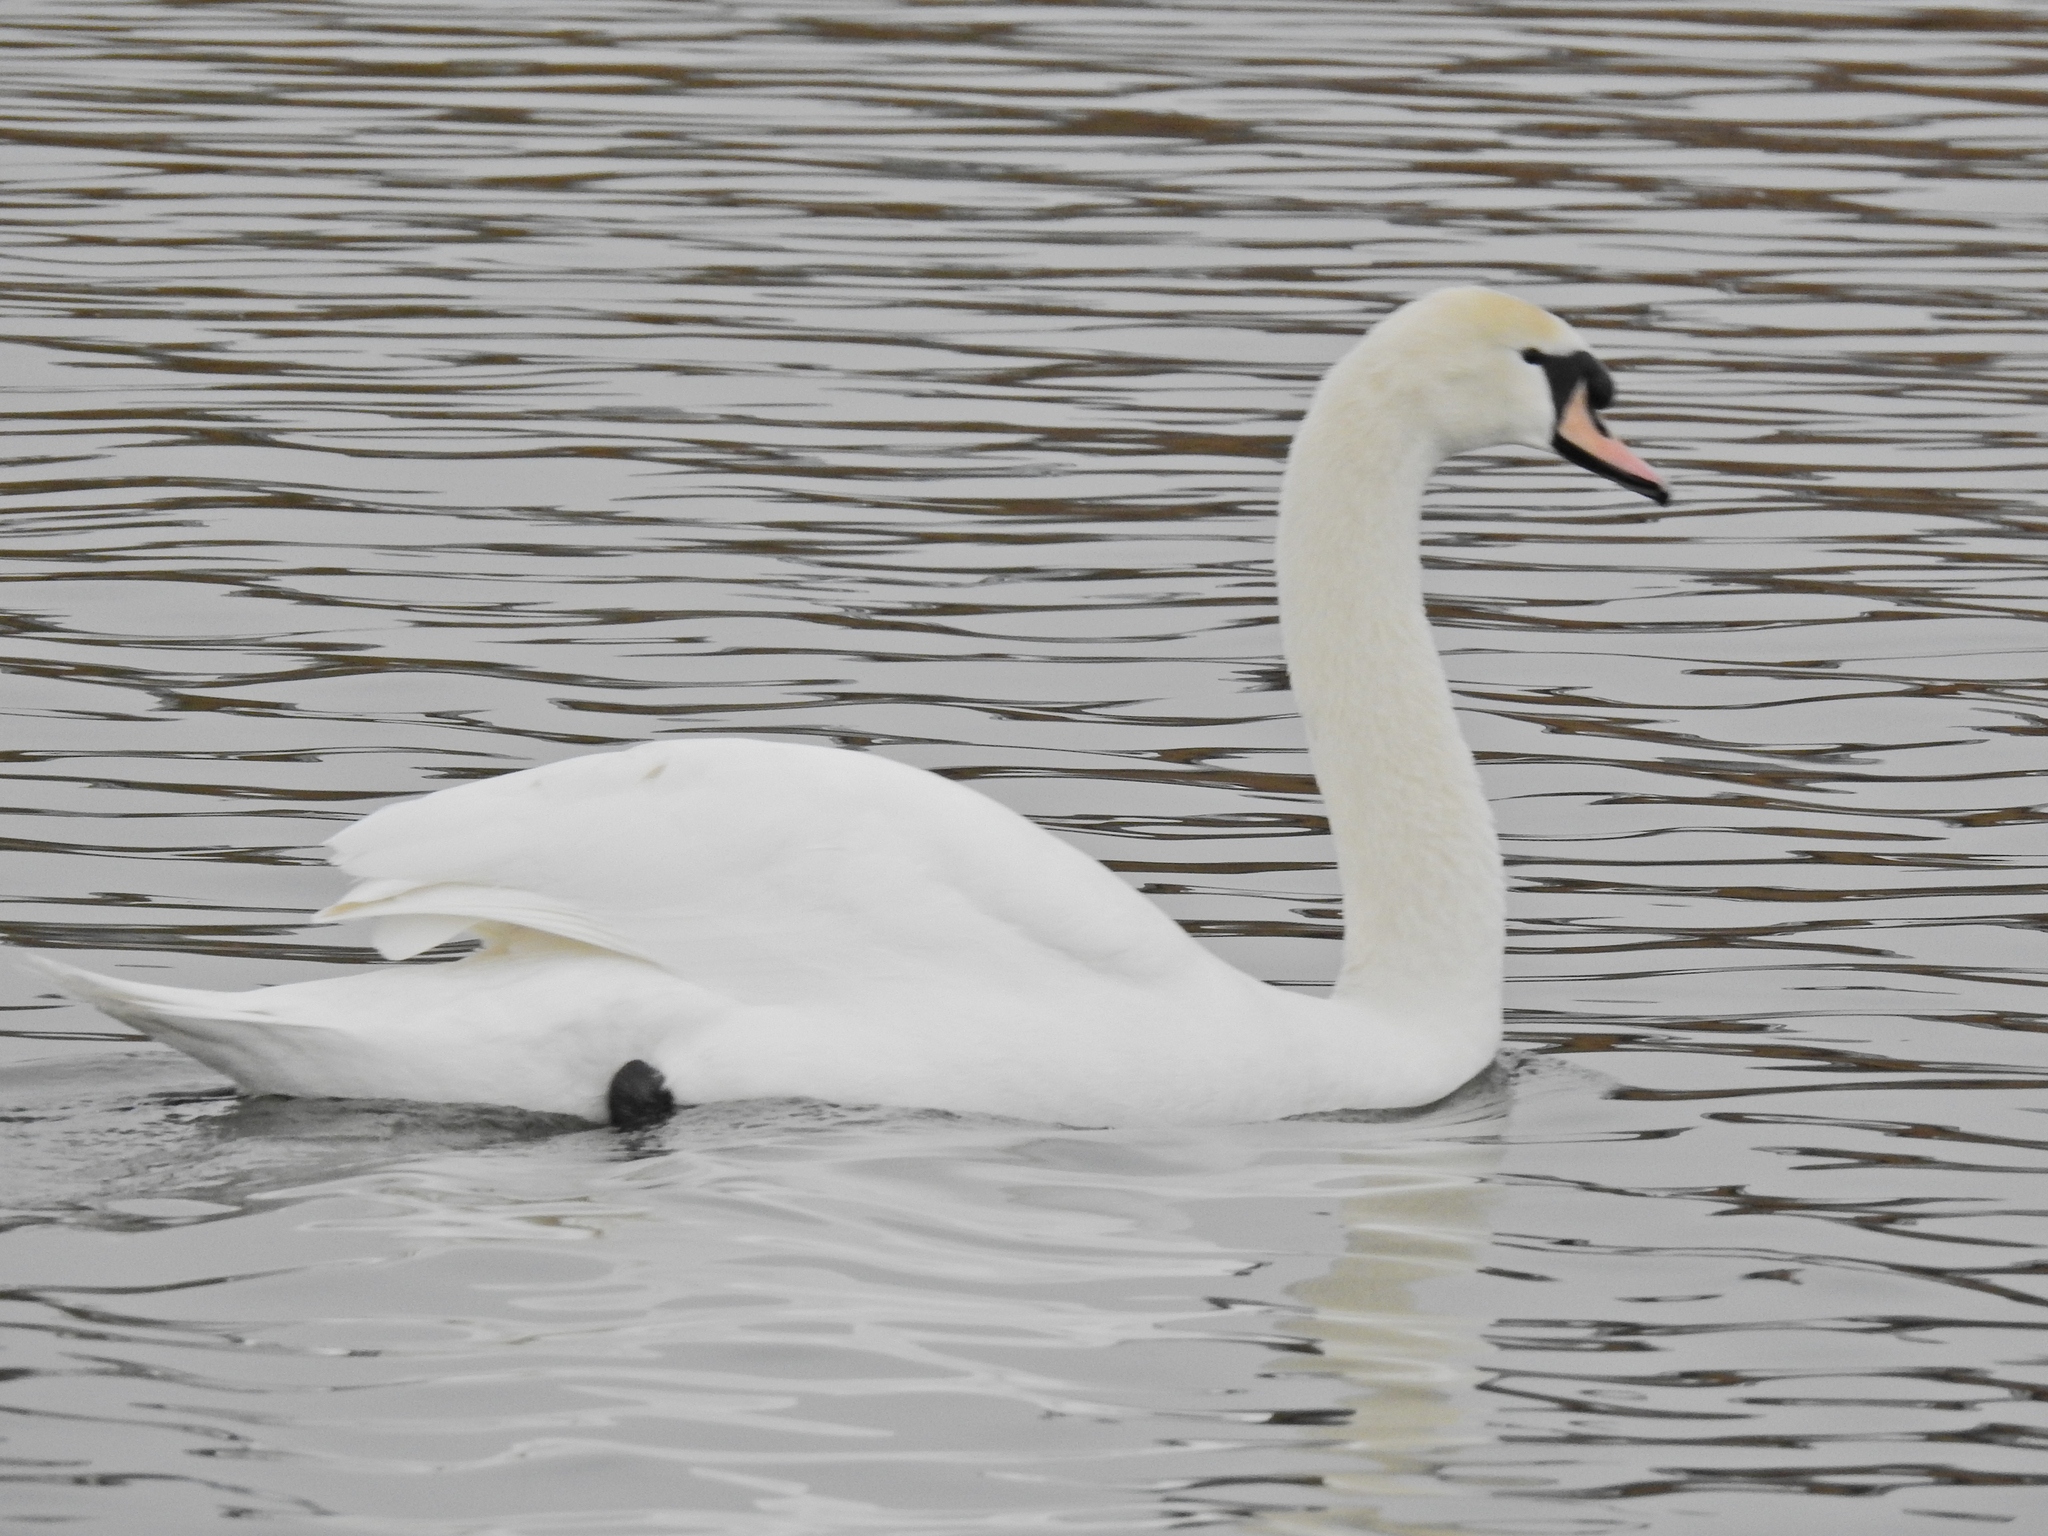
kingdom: Animalia
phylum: Chordata
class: Aves
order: Anseriformes
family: Anatidae
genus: Cygnus
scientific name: Cygnus olor
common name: Mute swan
